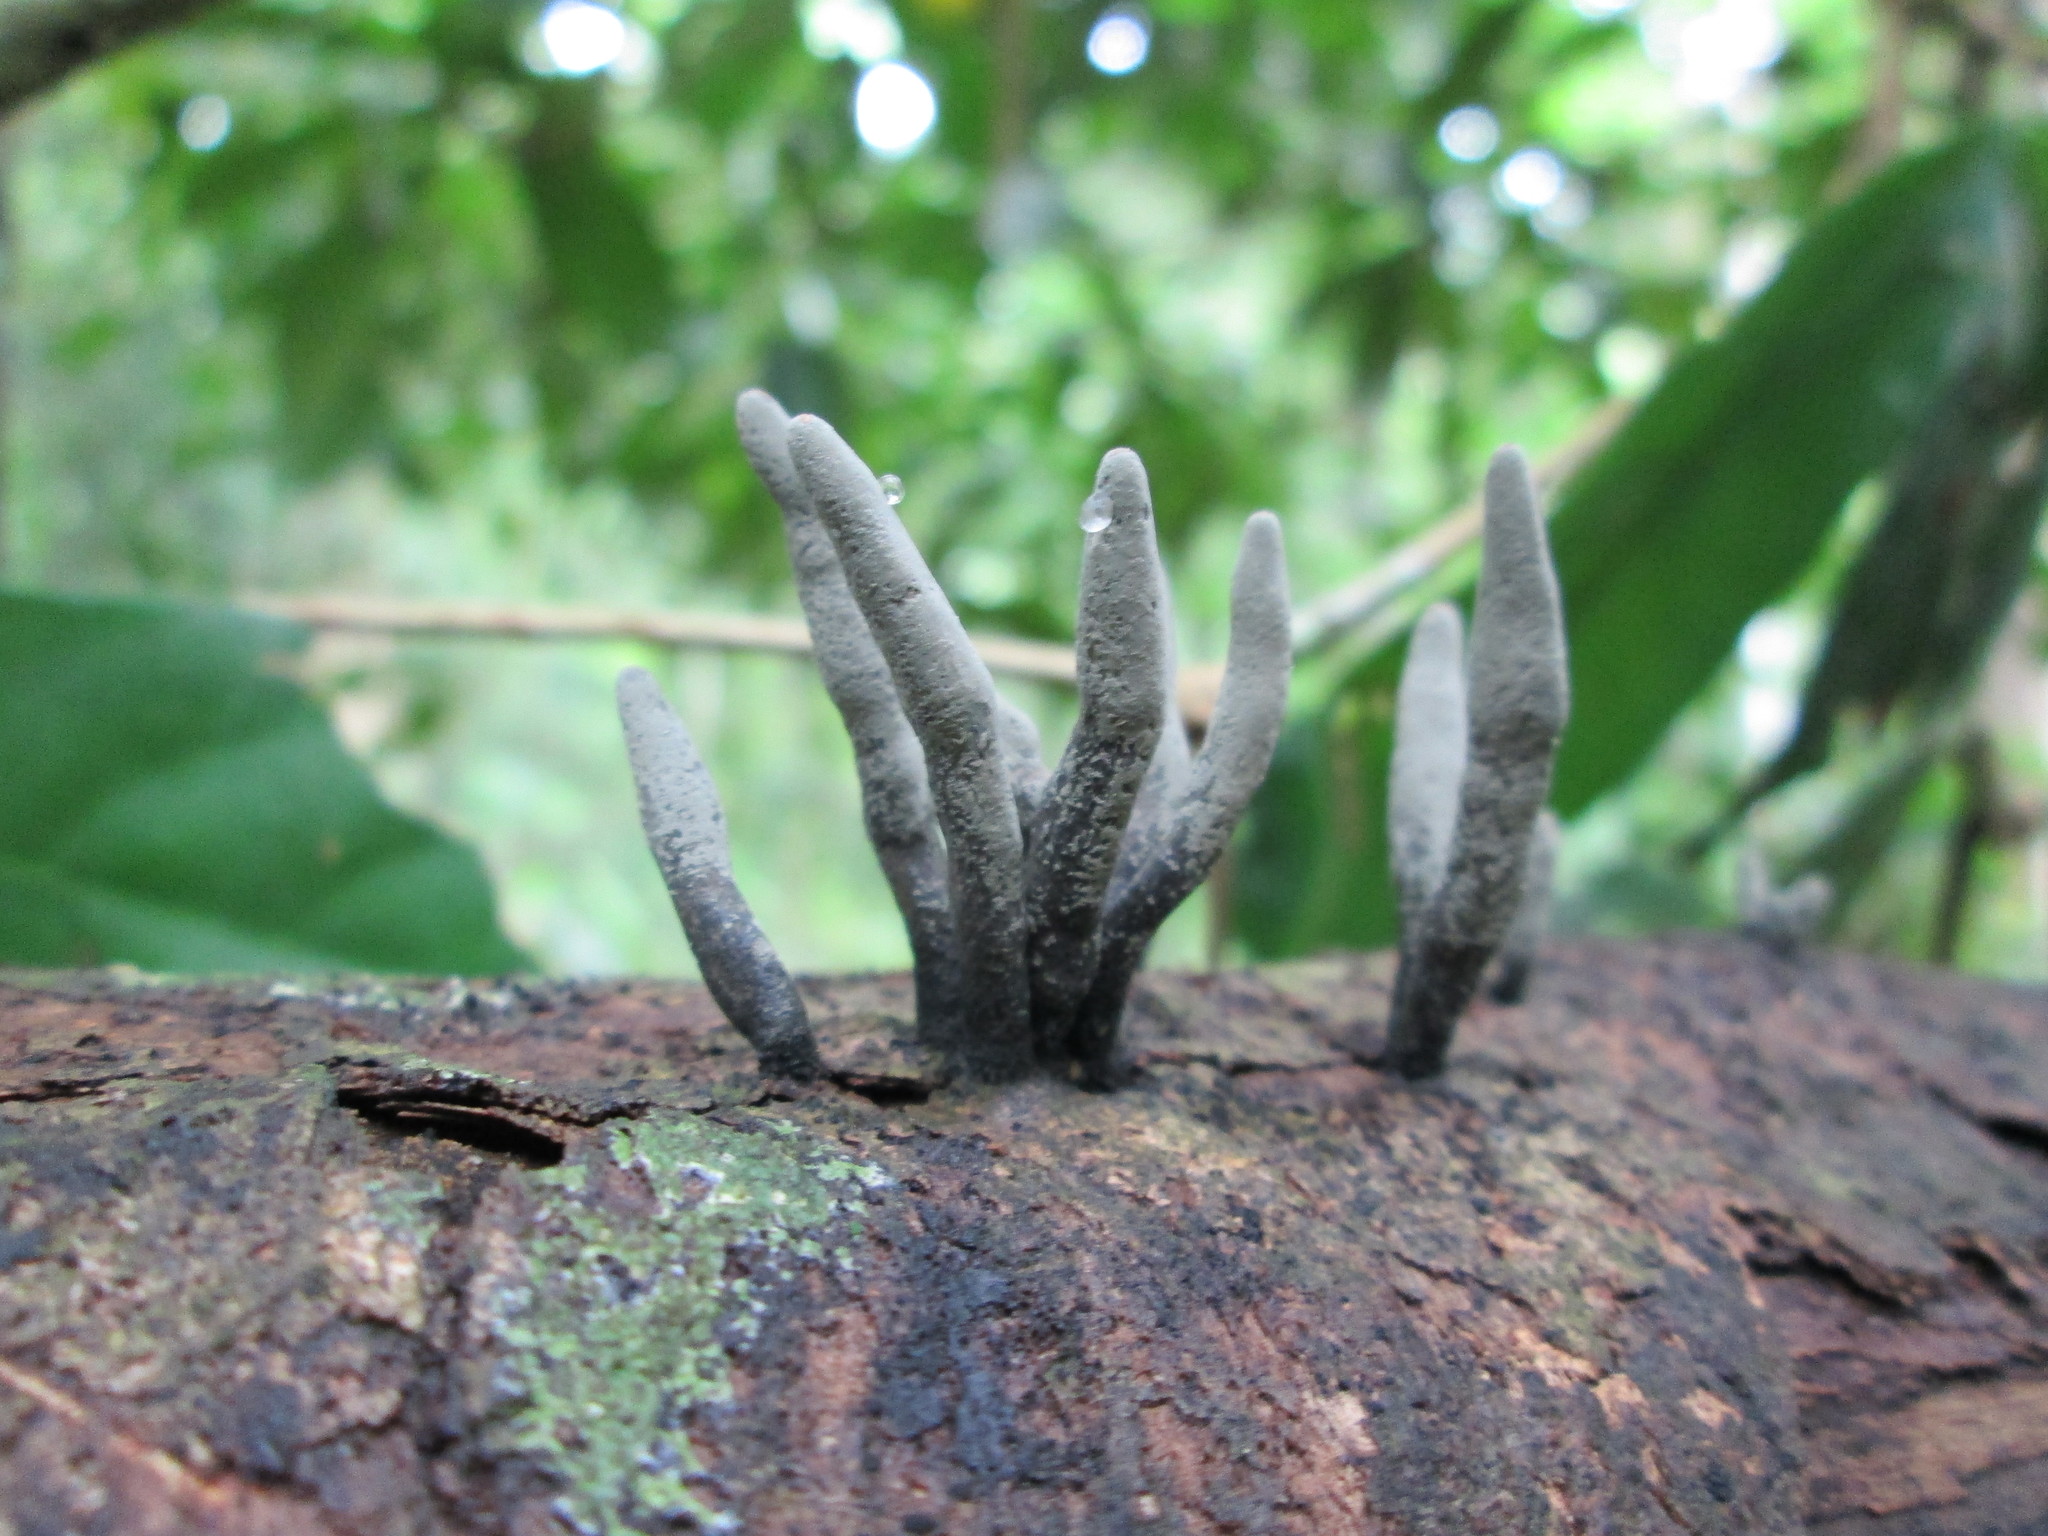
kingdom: Fungi
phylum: Ascomycota
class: Sordariomycetes
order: Xylariales
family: Xylariaceae
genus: Xylaria
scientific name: Xylaria polymorpha
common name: Dead man's fingers
